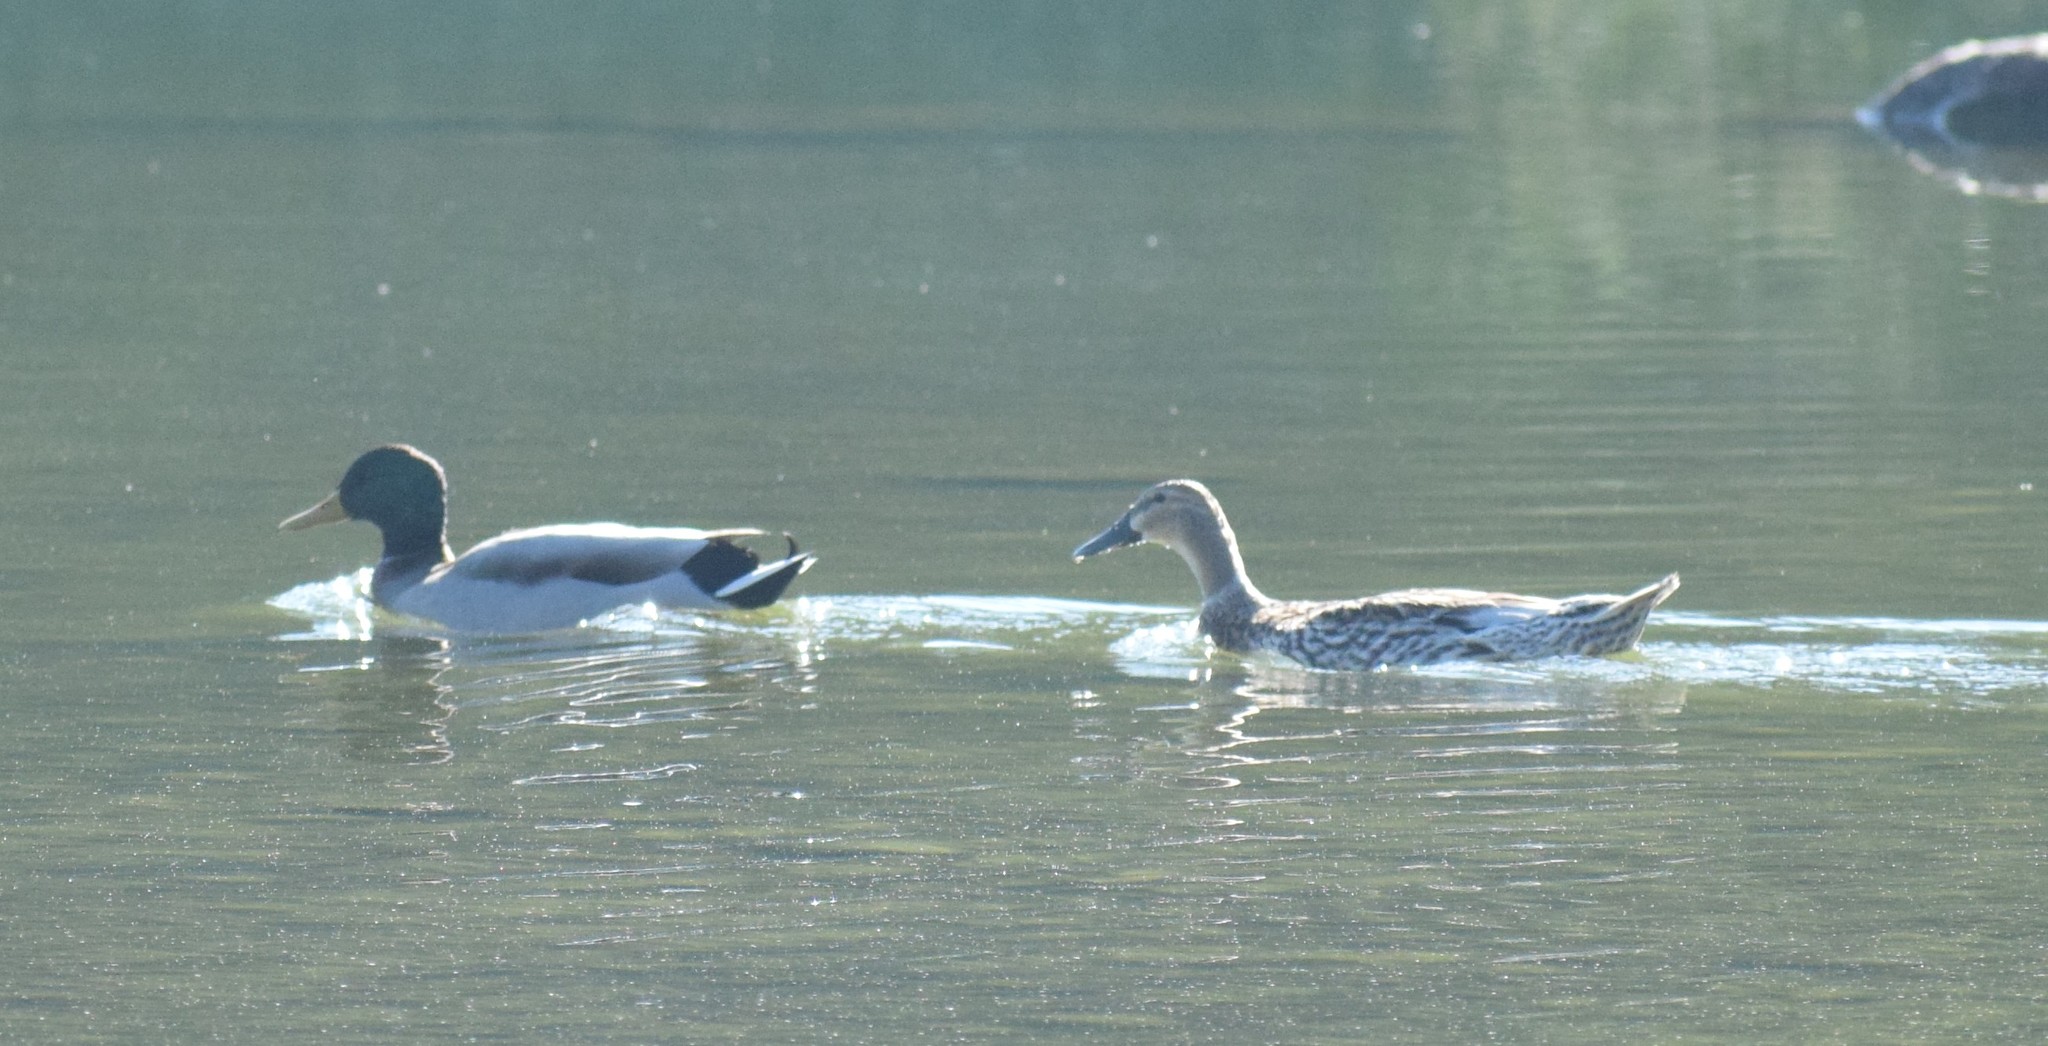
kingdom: Animalia
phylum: Chordata
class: Aves
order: Anseriformes
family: Anatidae
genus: Anas
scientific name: Anas platyrhynchos
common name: Mallard
